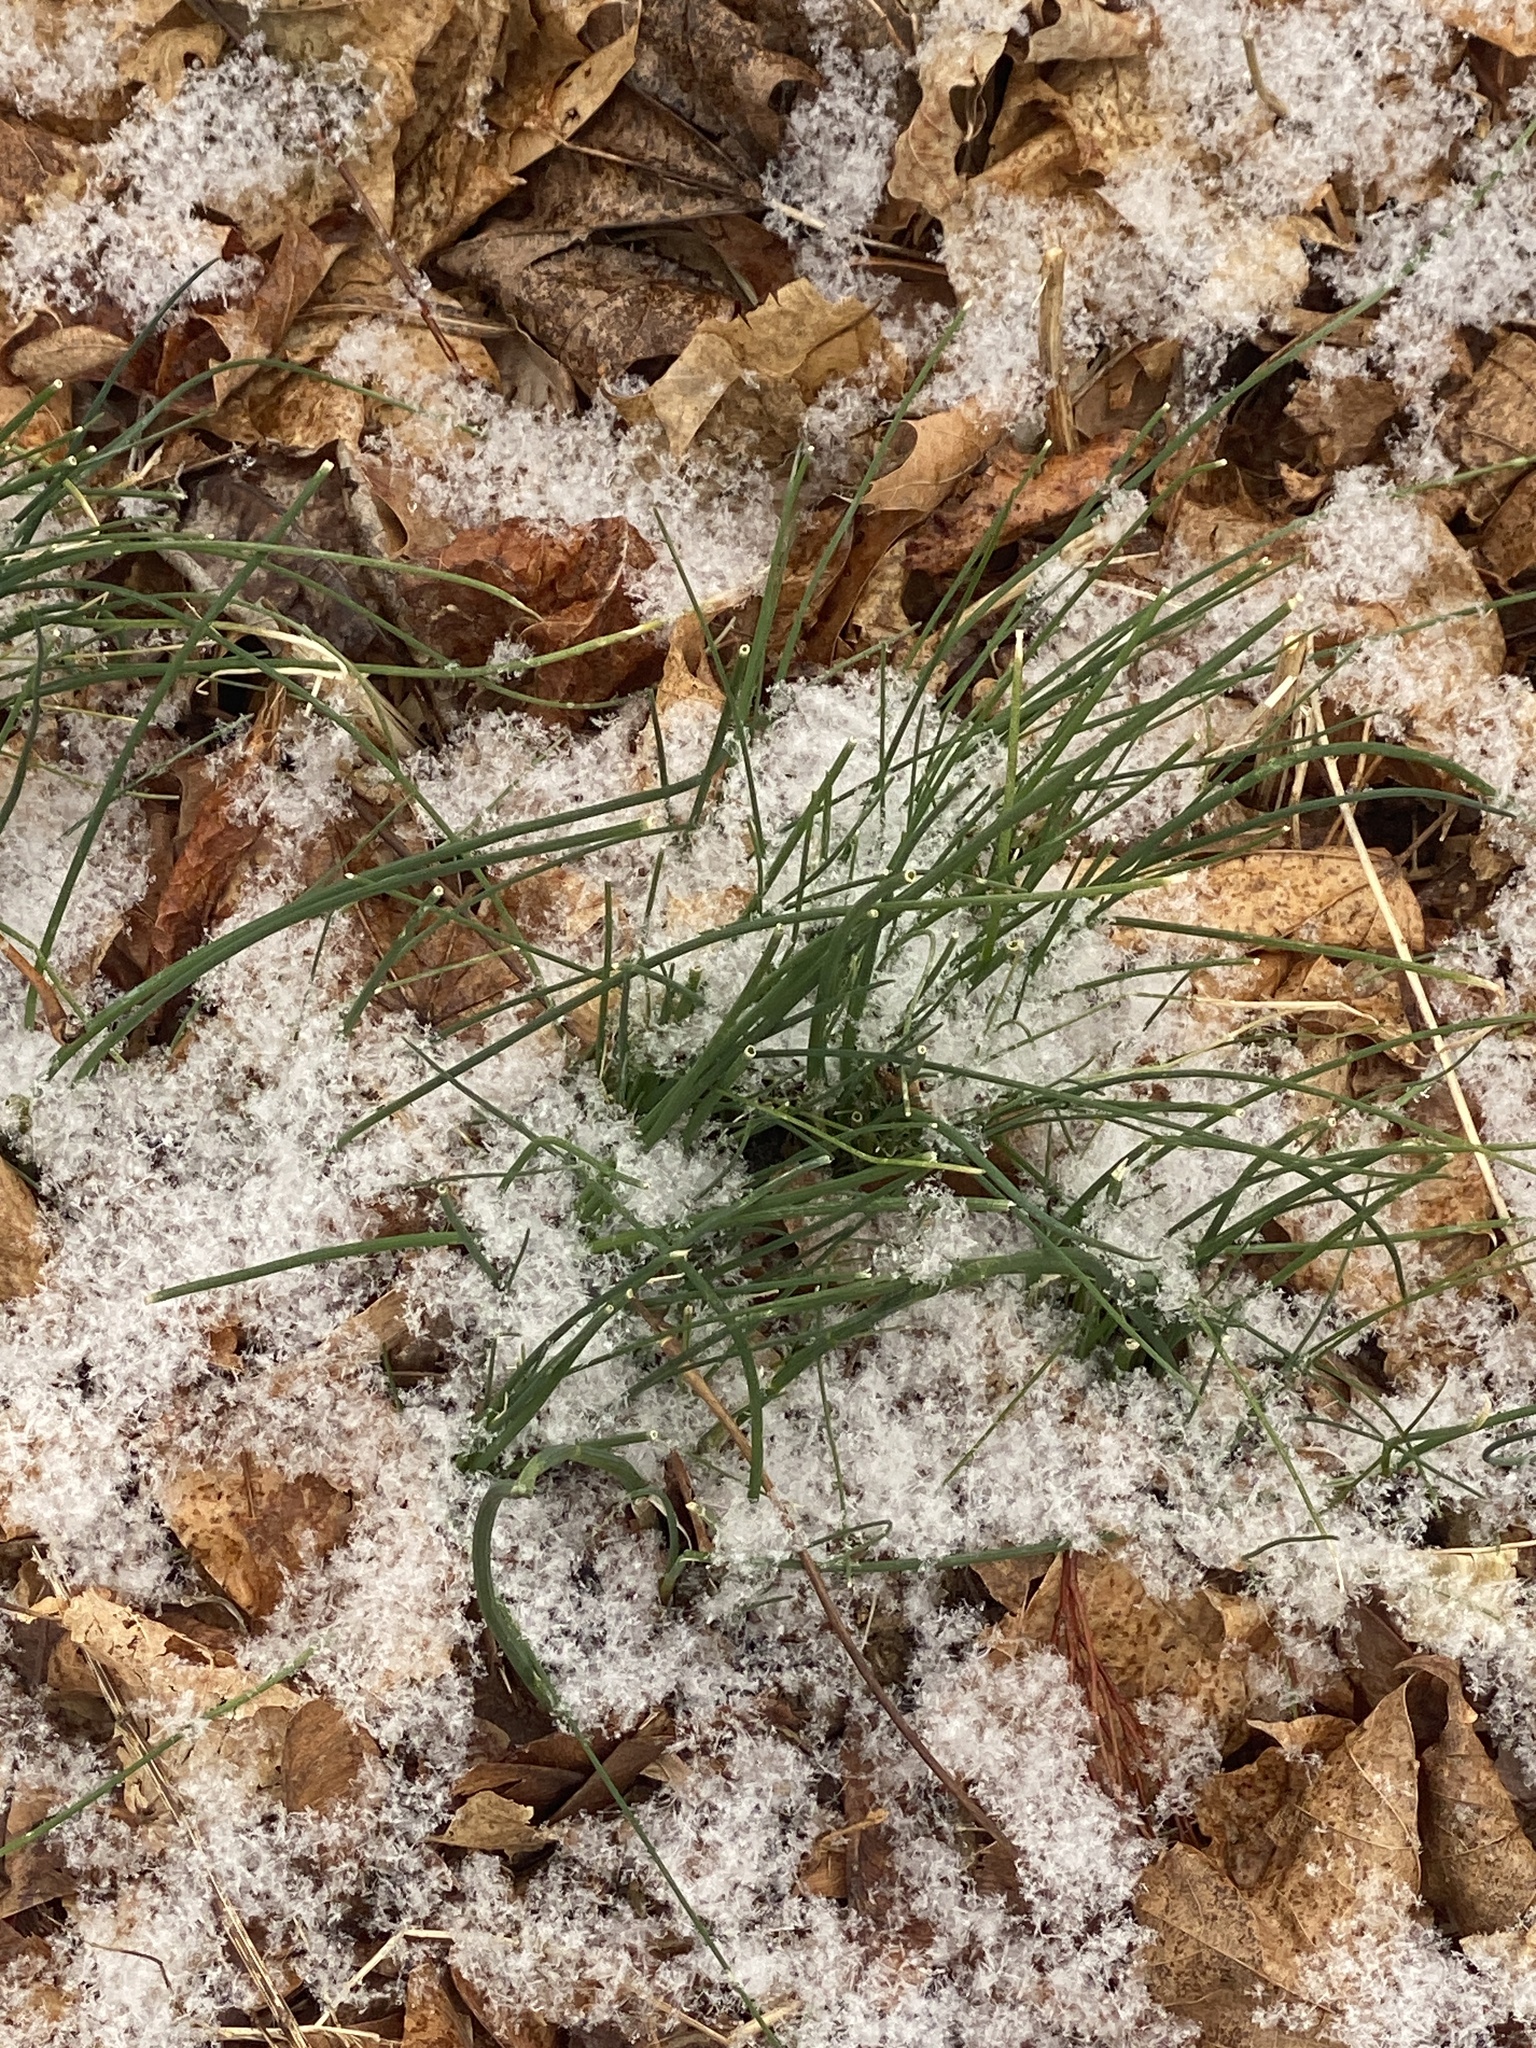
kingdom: Plantae
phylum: Tracheophyta
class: Liliopsida
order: Asparagales
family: Amaryllidaceae
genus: Allium
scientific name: Allium vineale
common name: Crow garlic
